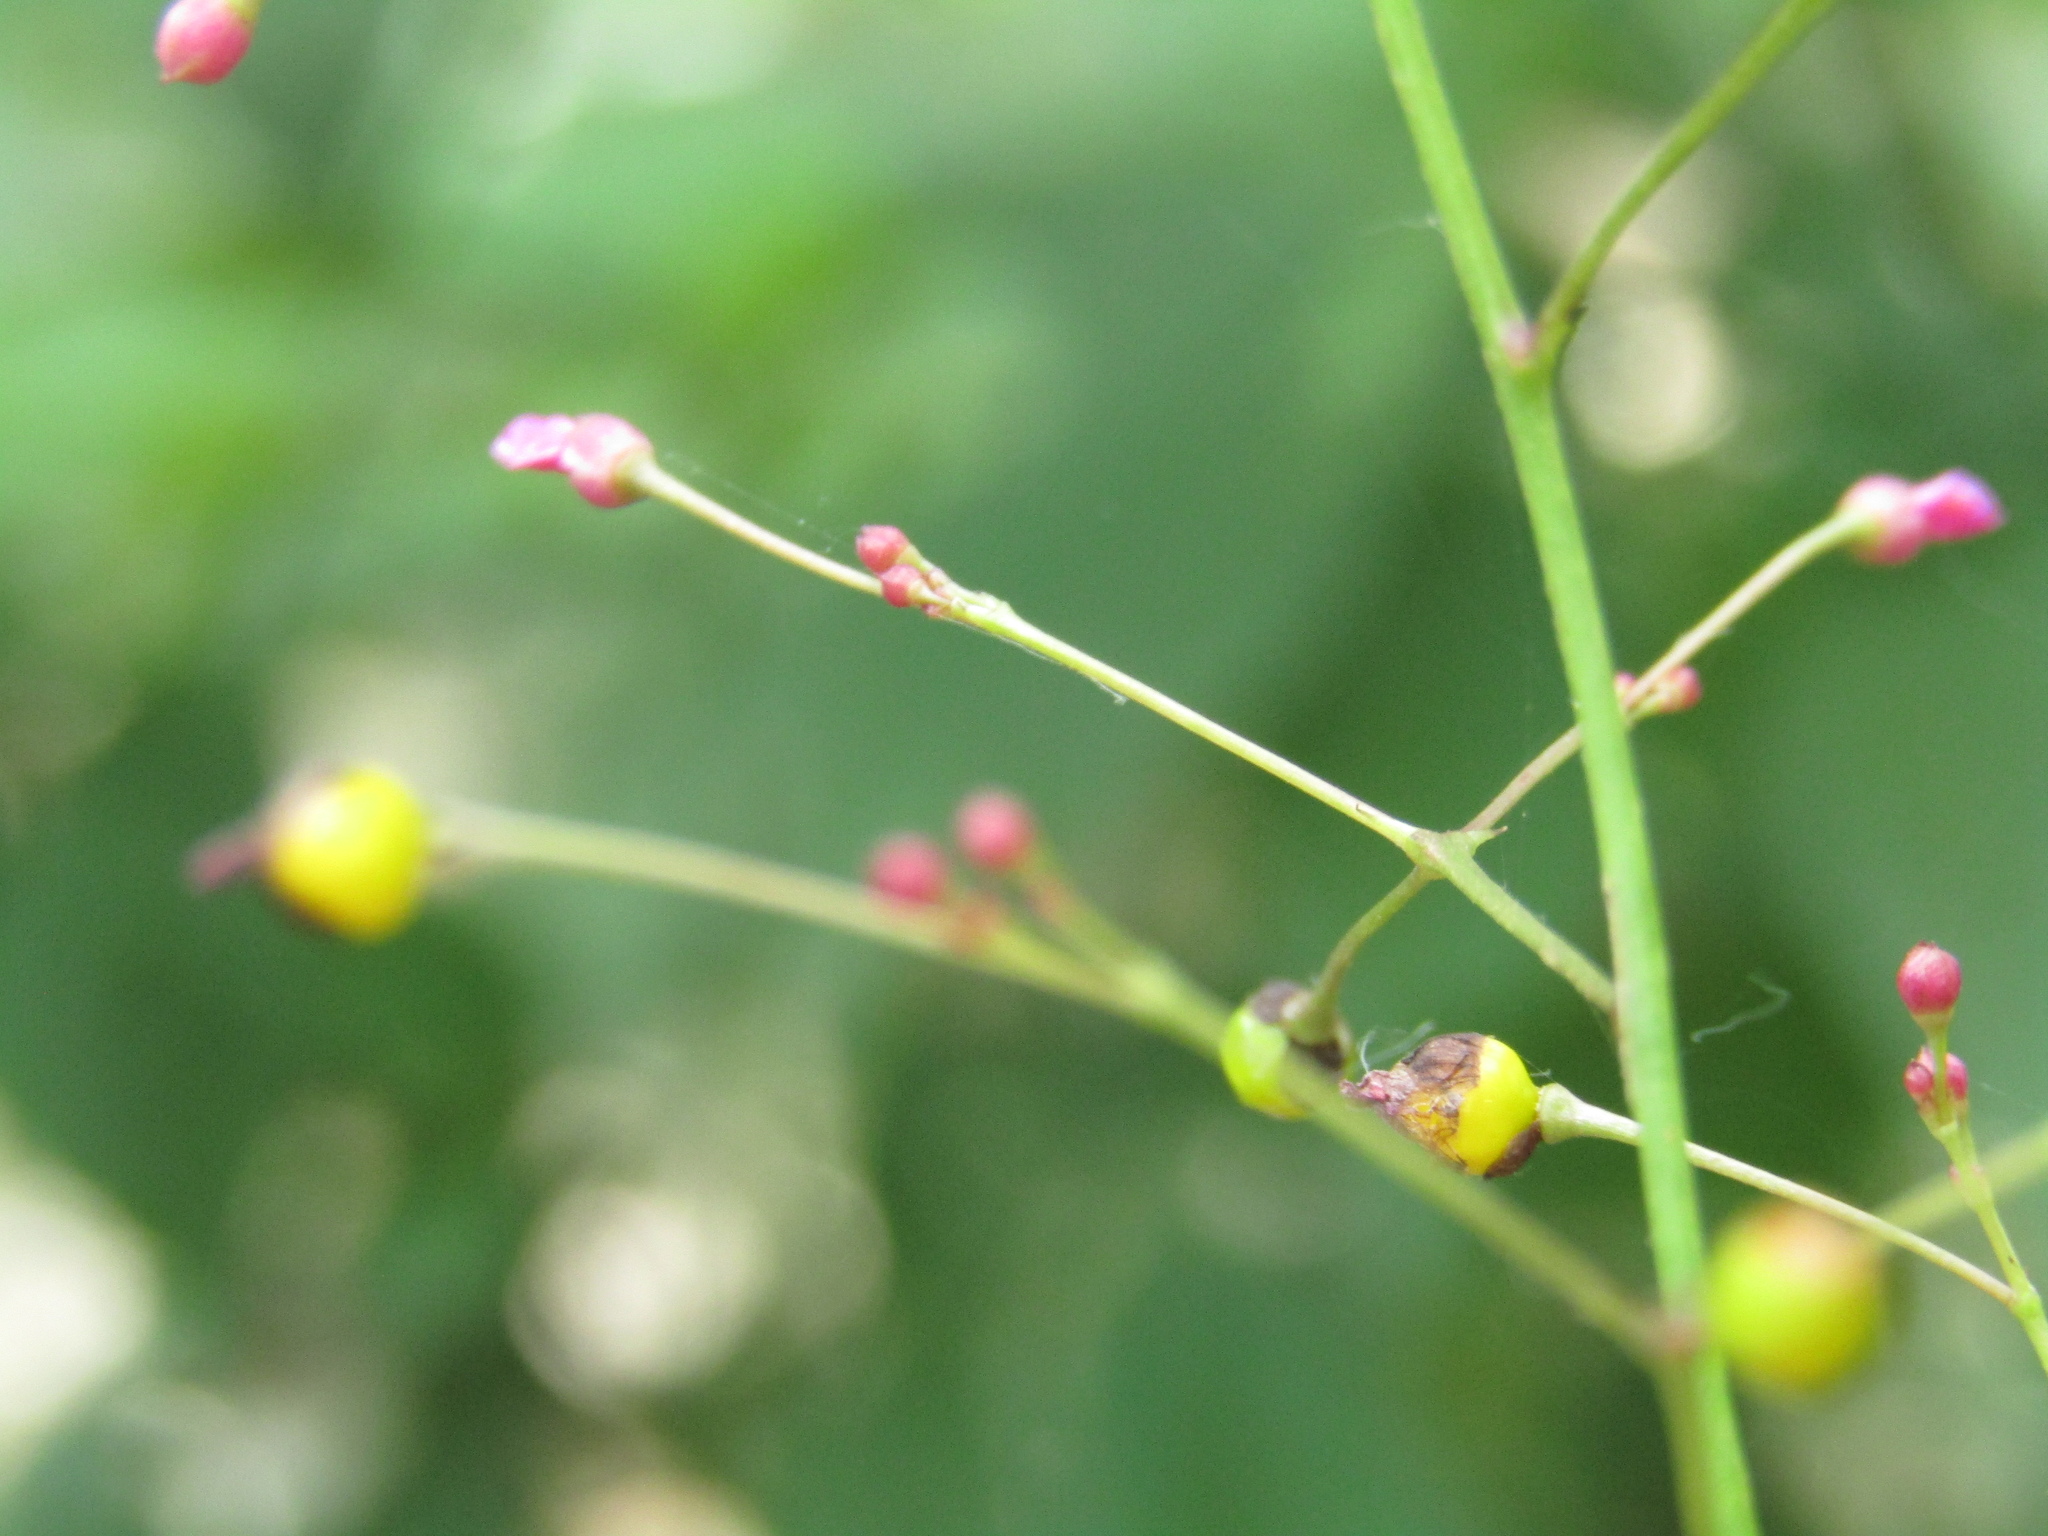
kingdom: Plantae
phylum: Tracheophyta
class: Magnoliopsida
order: Caryophyllales
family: Talinaceae
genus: Talinum
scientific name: Talinum paniculatum
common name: Jewels of opar
